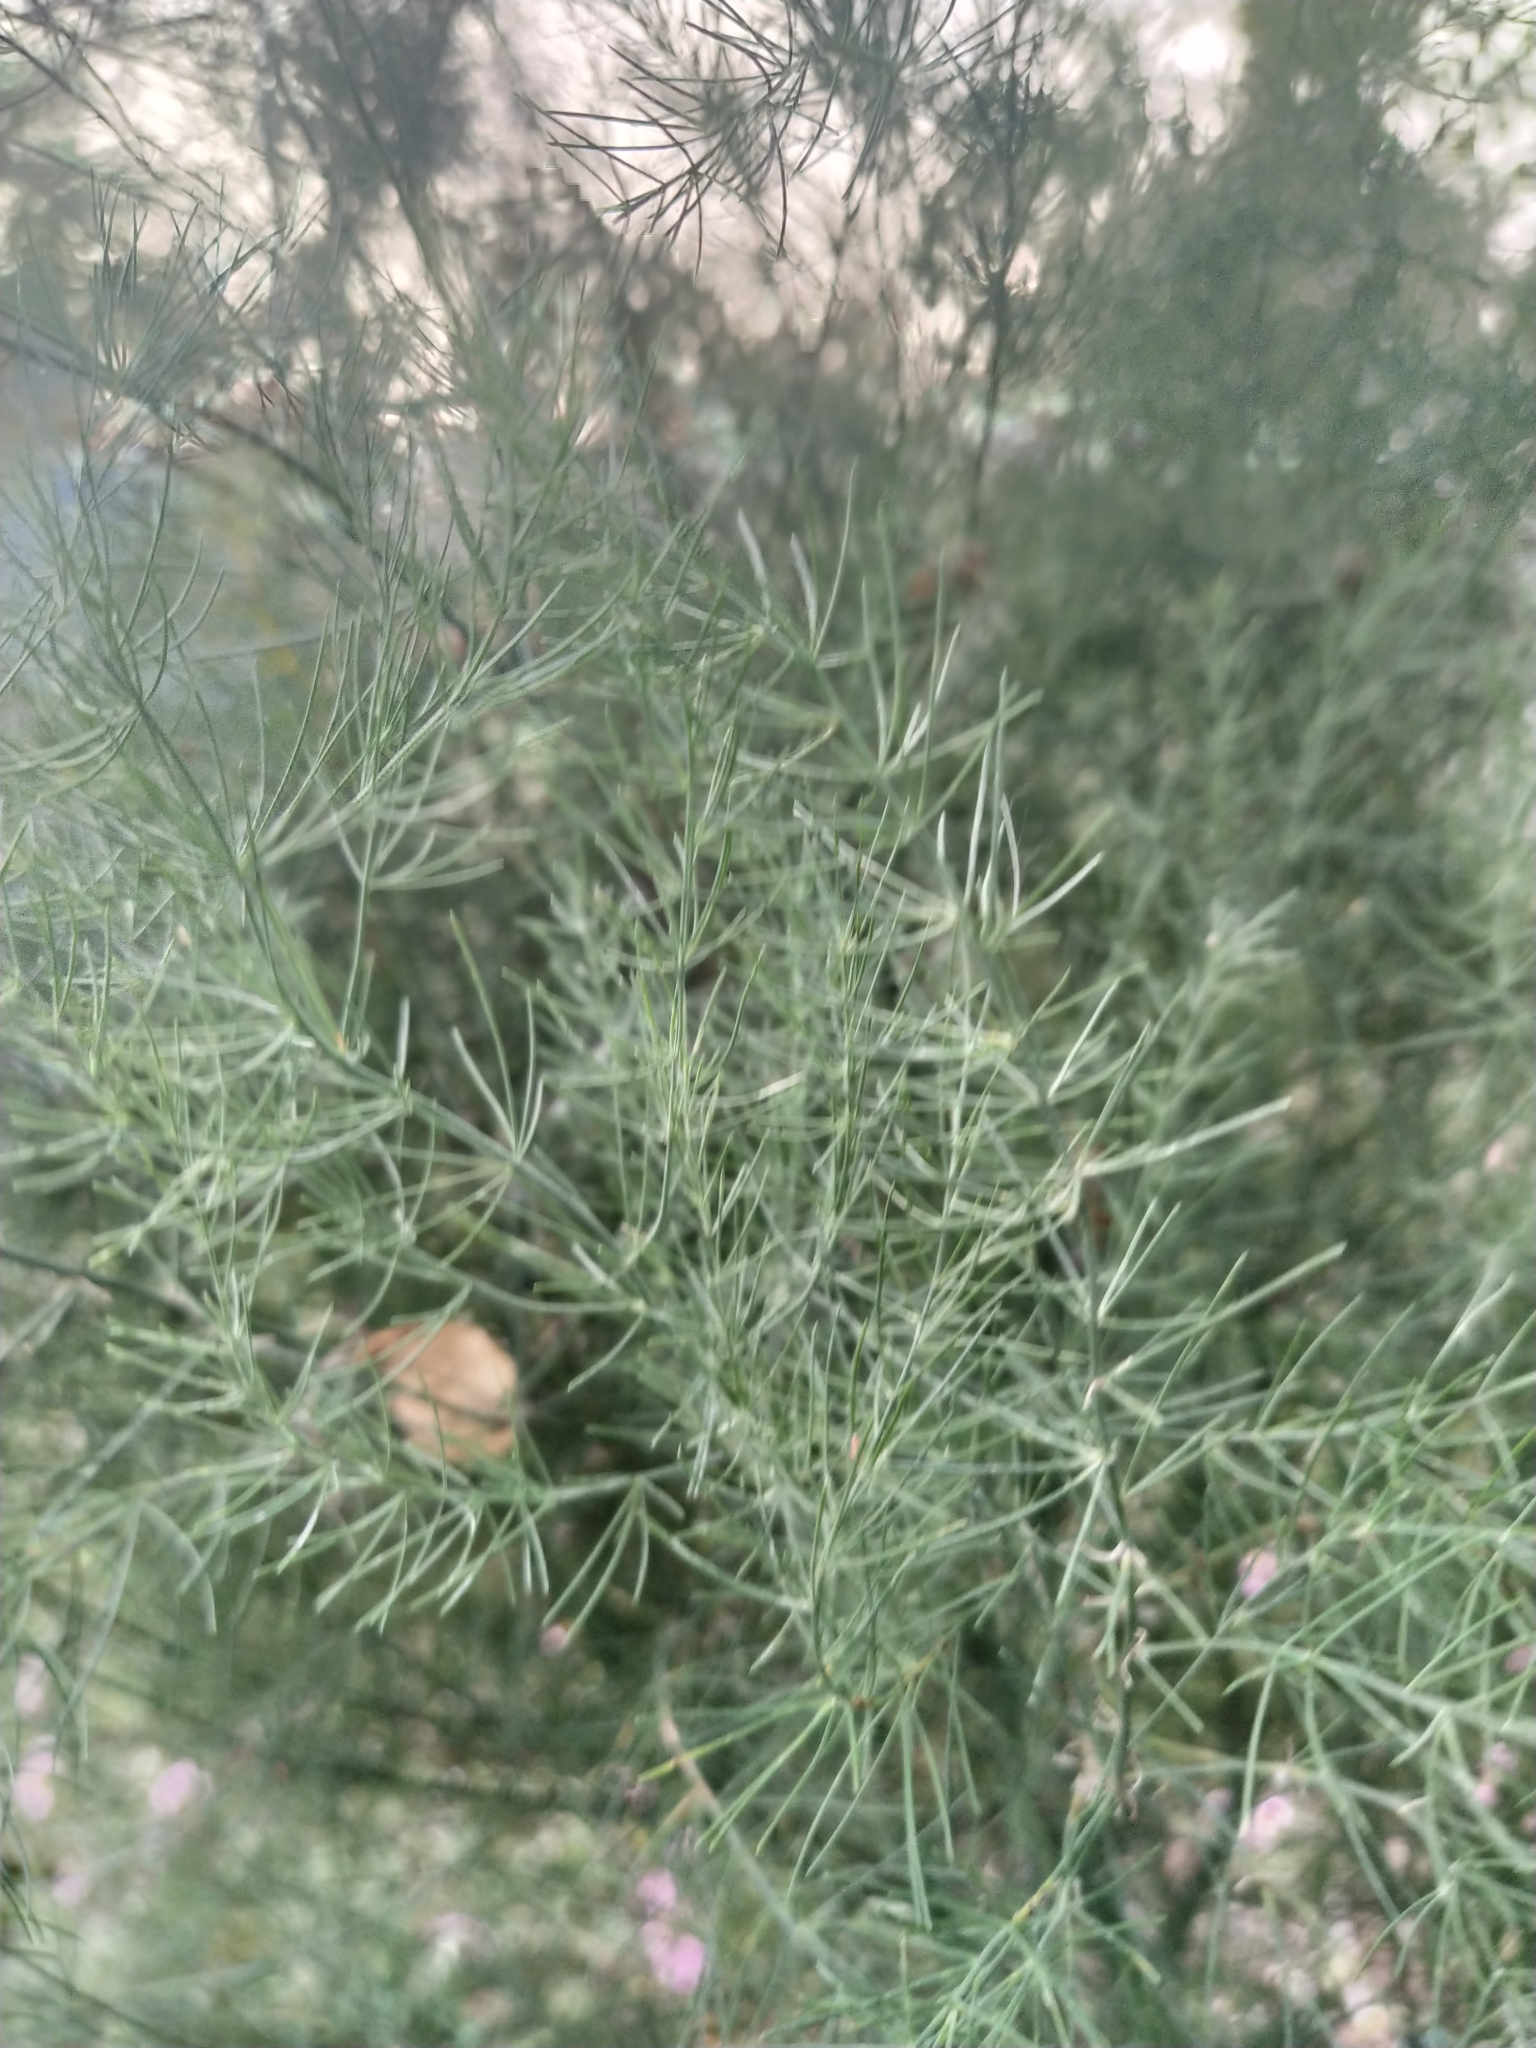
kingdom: Plantae
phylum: Tracheophyta
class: Liliopsida
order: Asparagales
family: Asparagaceae
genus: Asparagus
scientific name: Asparagus officinalis
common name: Garden asparagus
